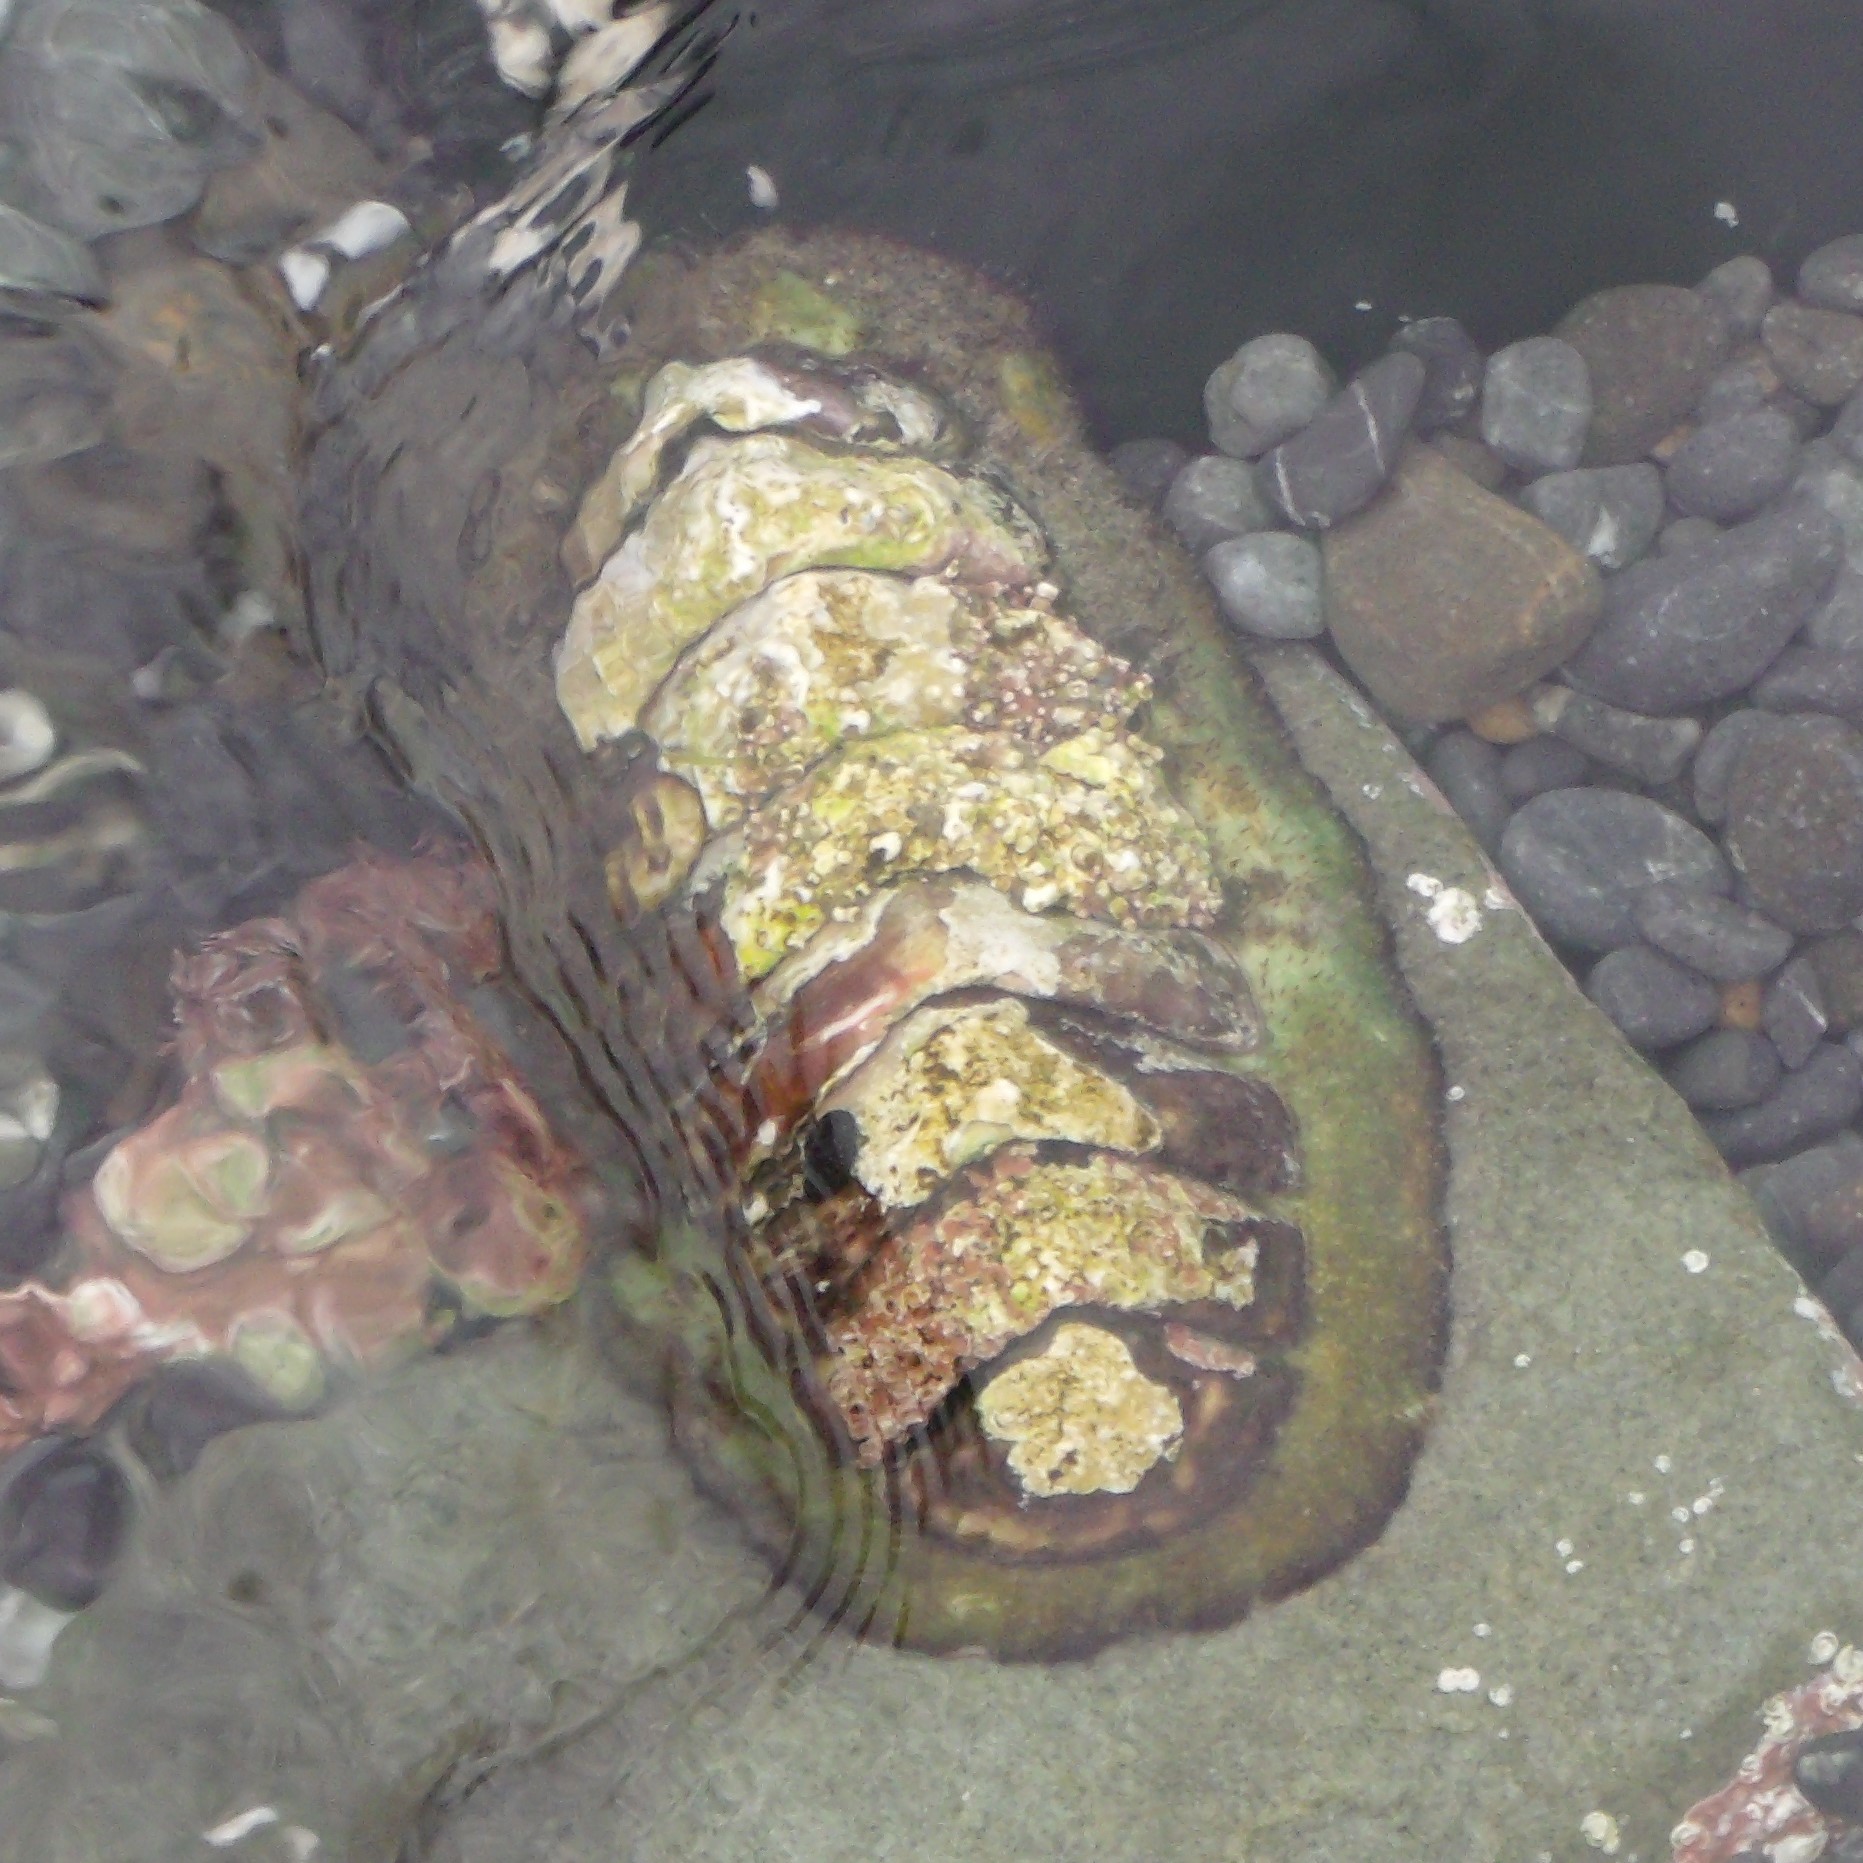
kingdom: Animalia
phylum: Mollusca
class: Polyplacophora
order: Callochitonida
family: Callochitonidae
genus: Eudoxochiton
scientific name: Eudoxochiton nobilis
